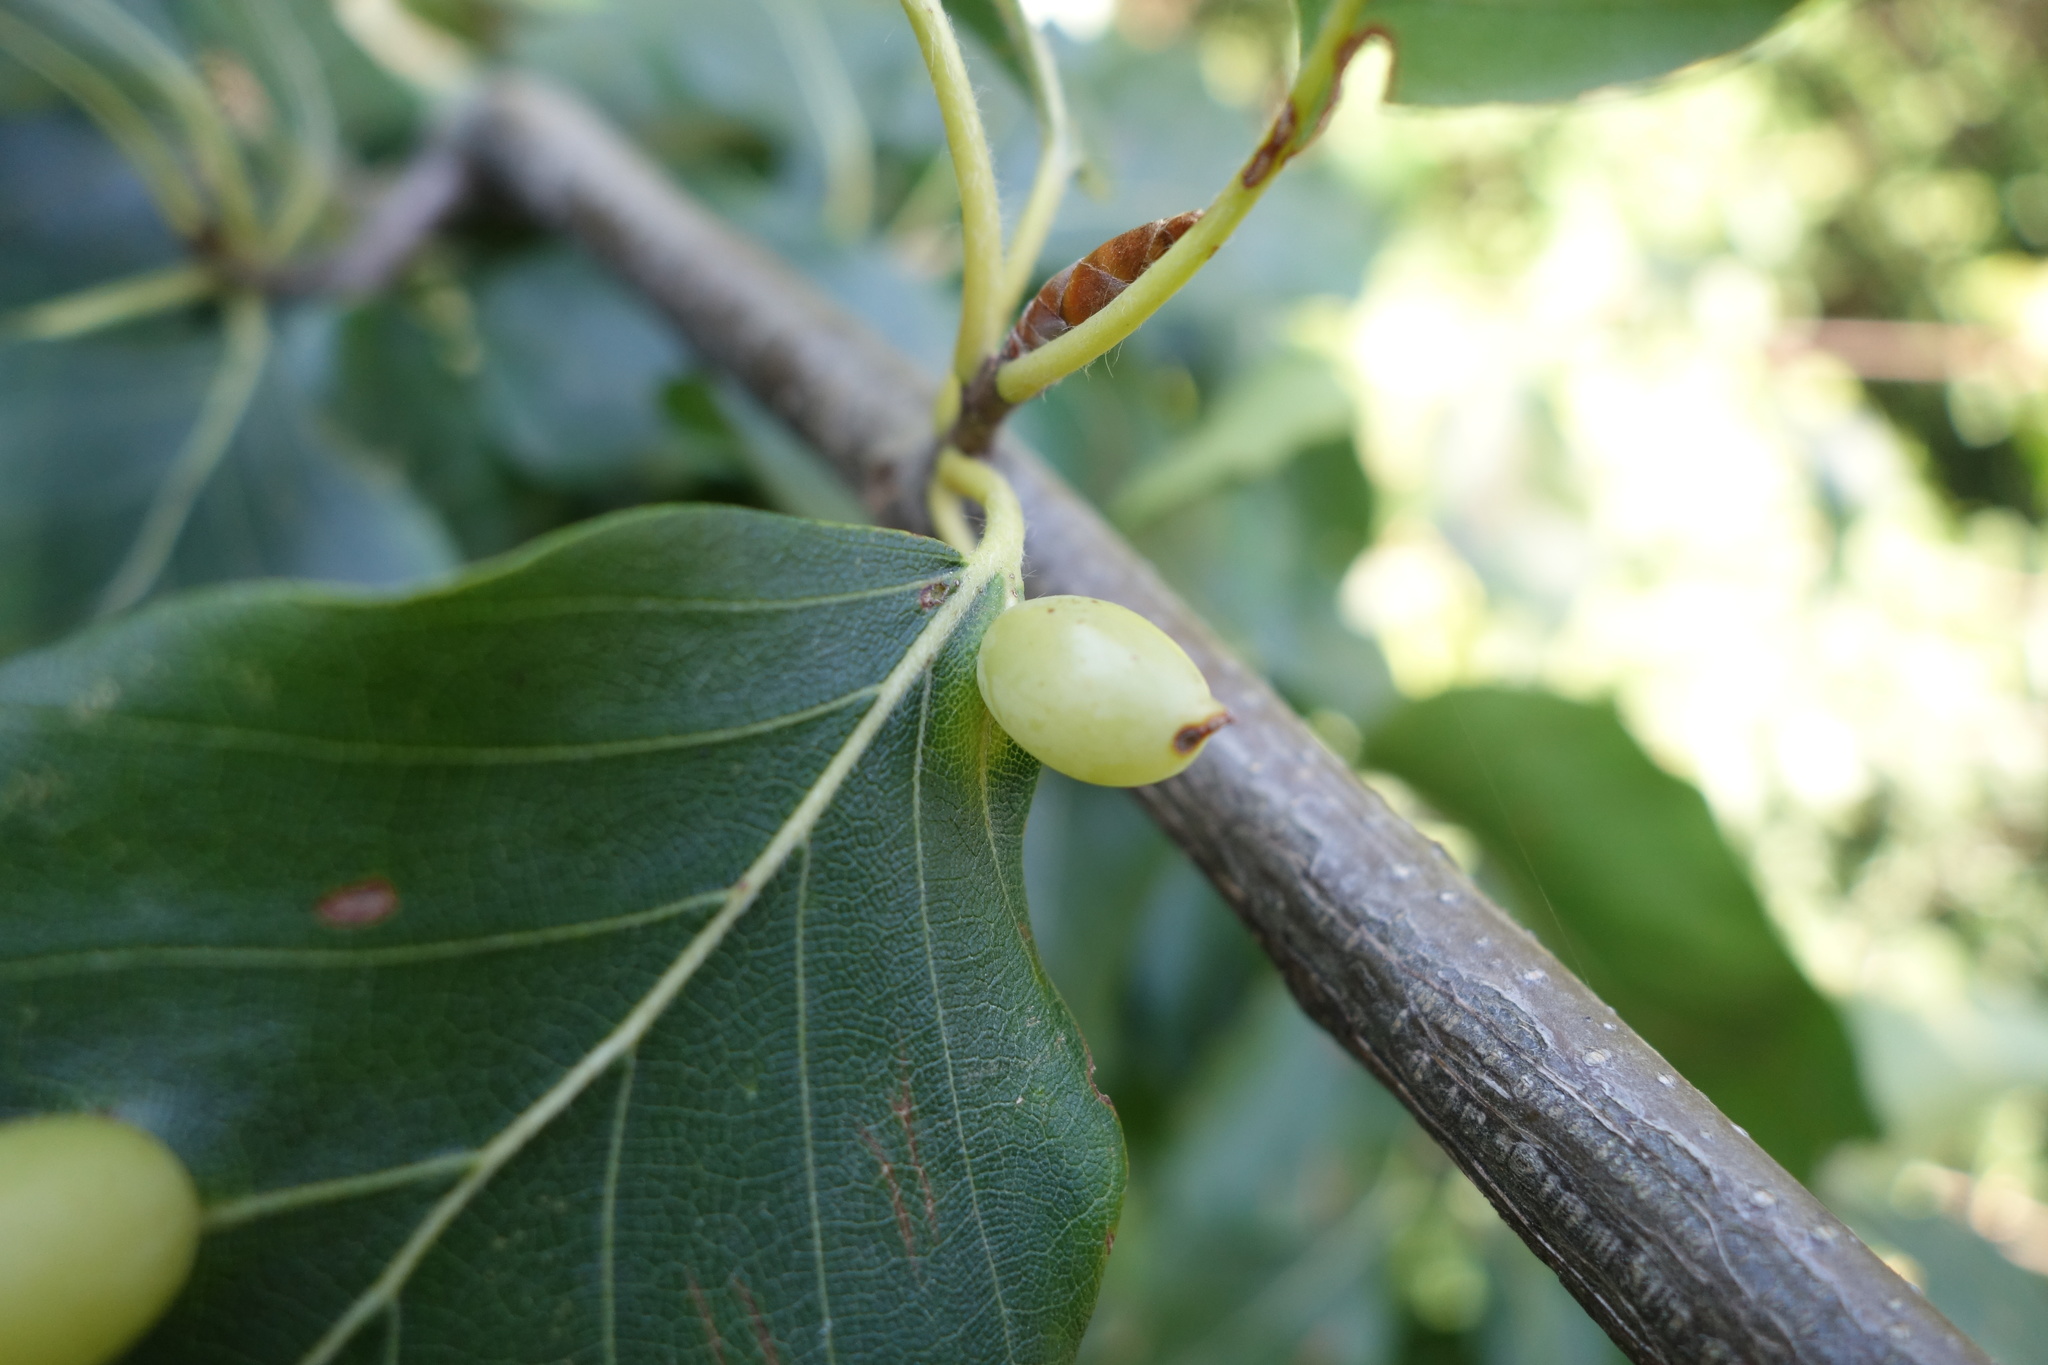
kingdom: Animalia
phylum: Arthropoda
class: Insecta
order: Diptera
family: Cecidomyiidae
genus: Mikiola
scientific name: Mikiola fagi
